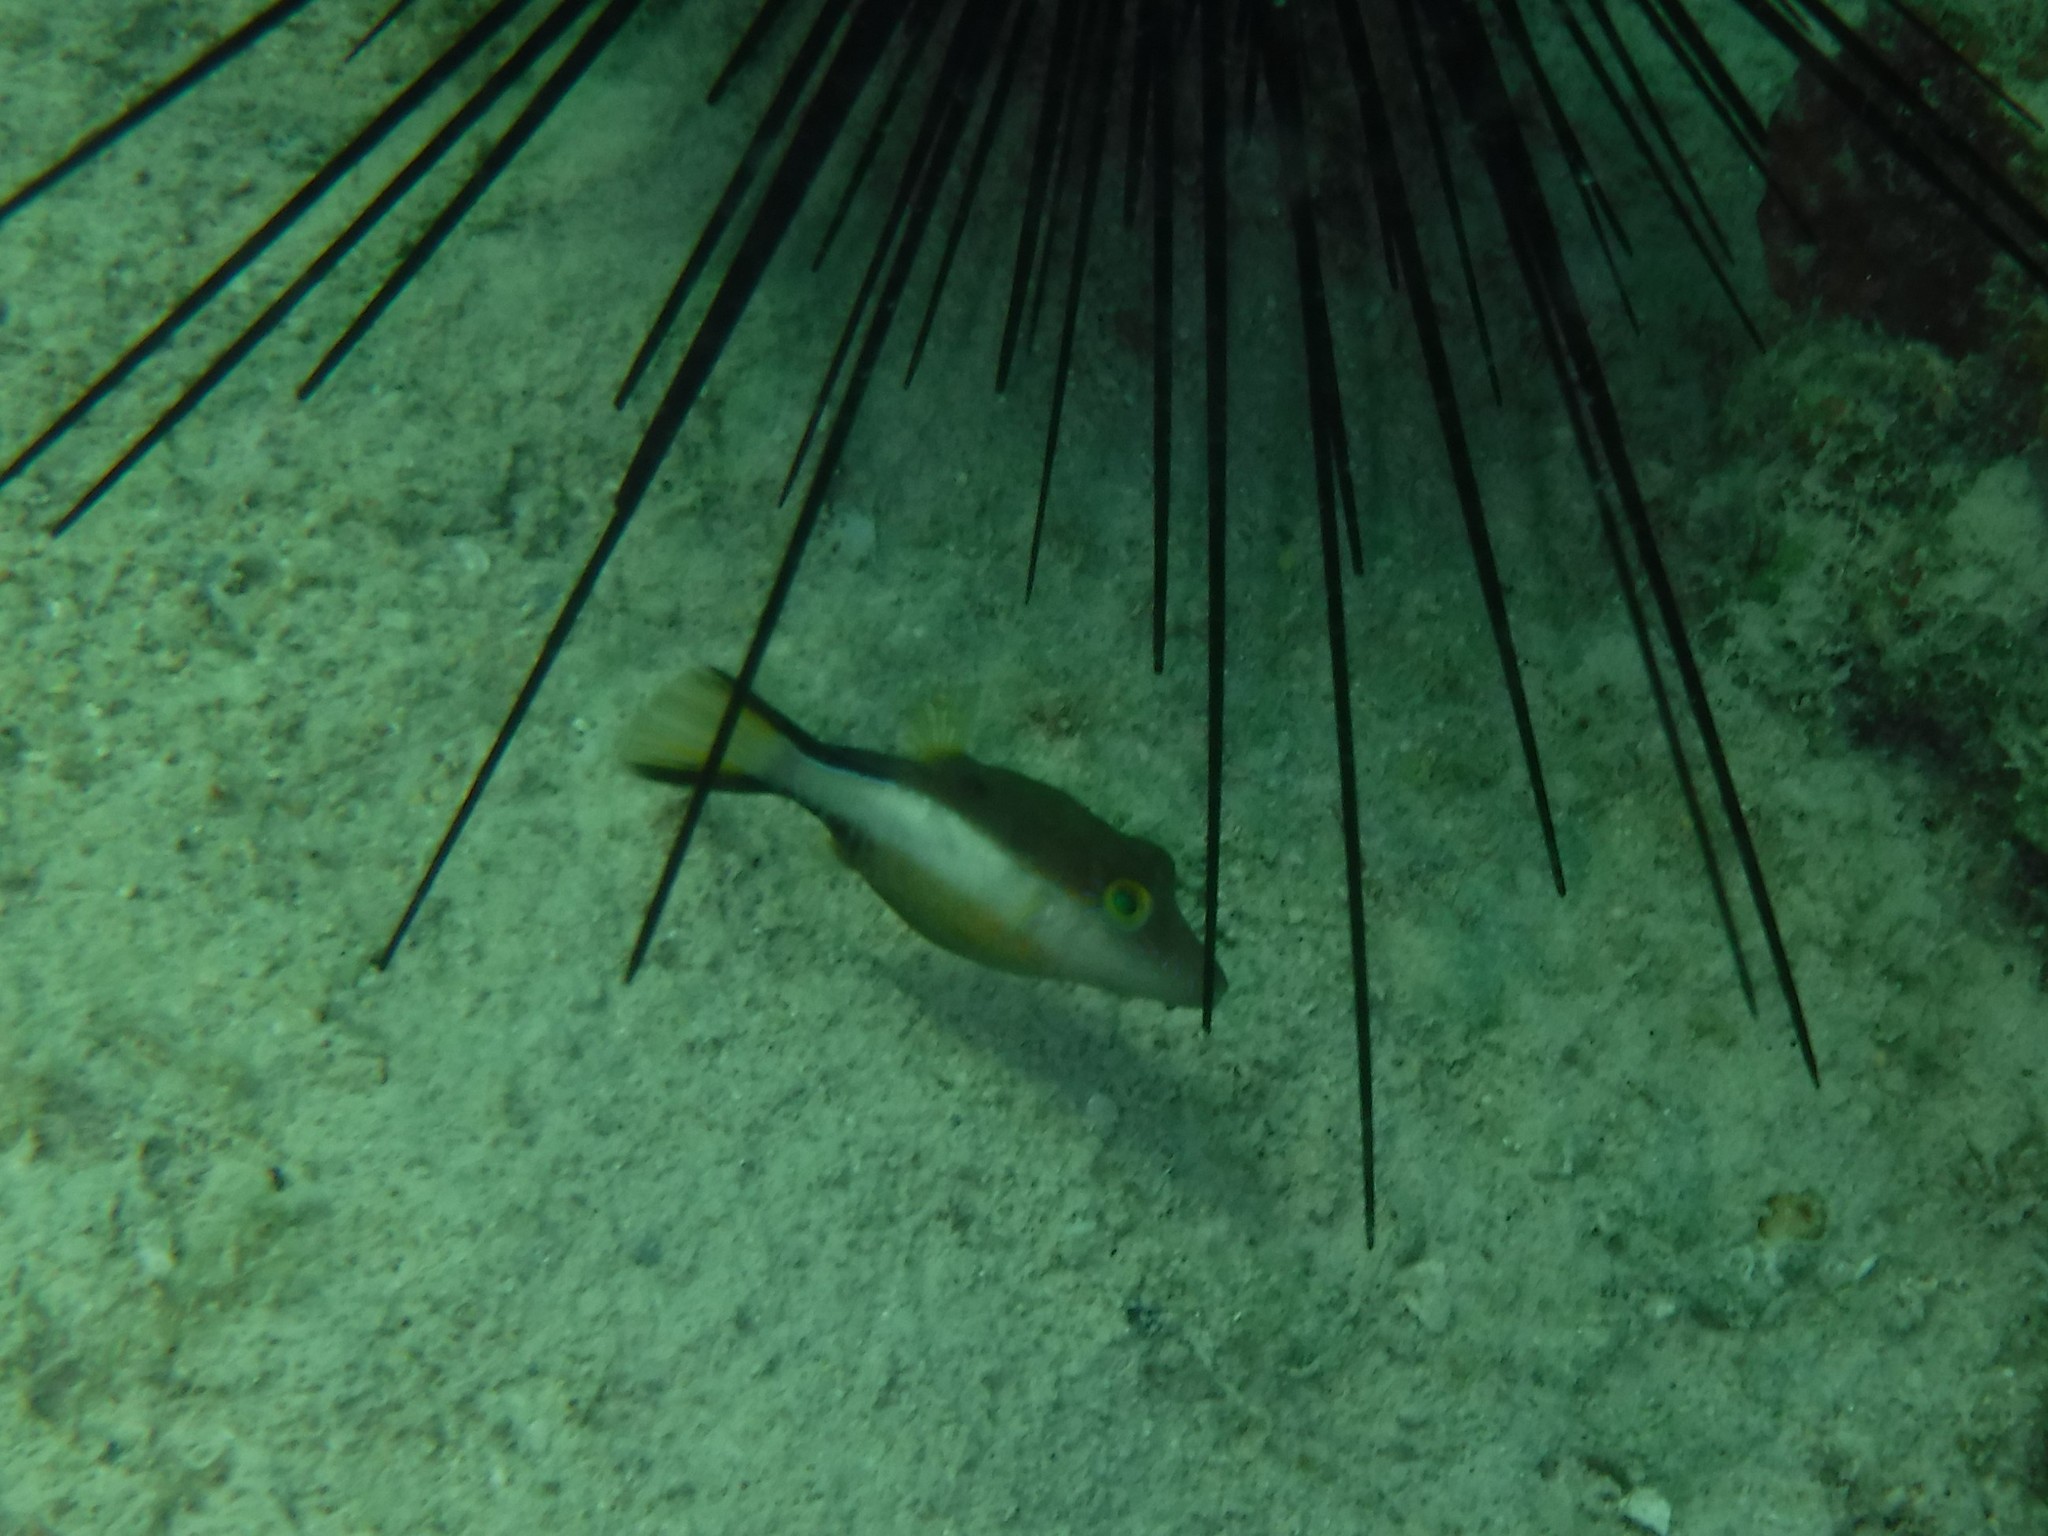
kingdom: Animalia
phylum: Chordata
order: Tetraodontiformes
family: Tetraodontidae
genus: Canthigaster
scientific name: Canthigaster rostrata
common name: Caribbean sharpnose-puffer
